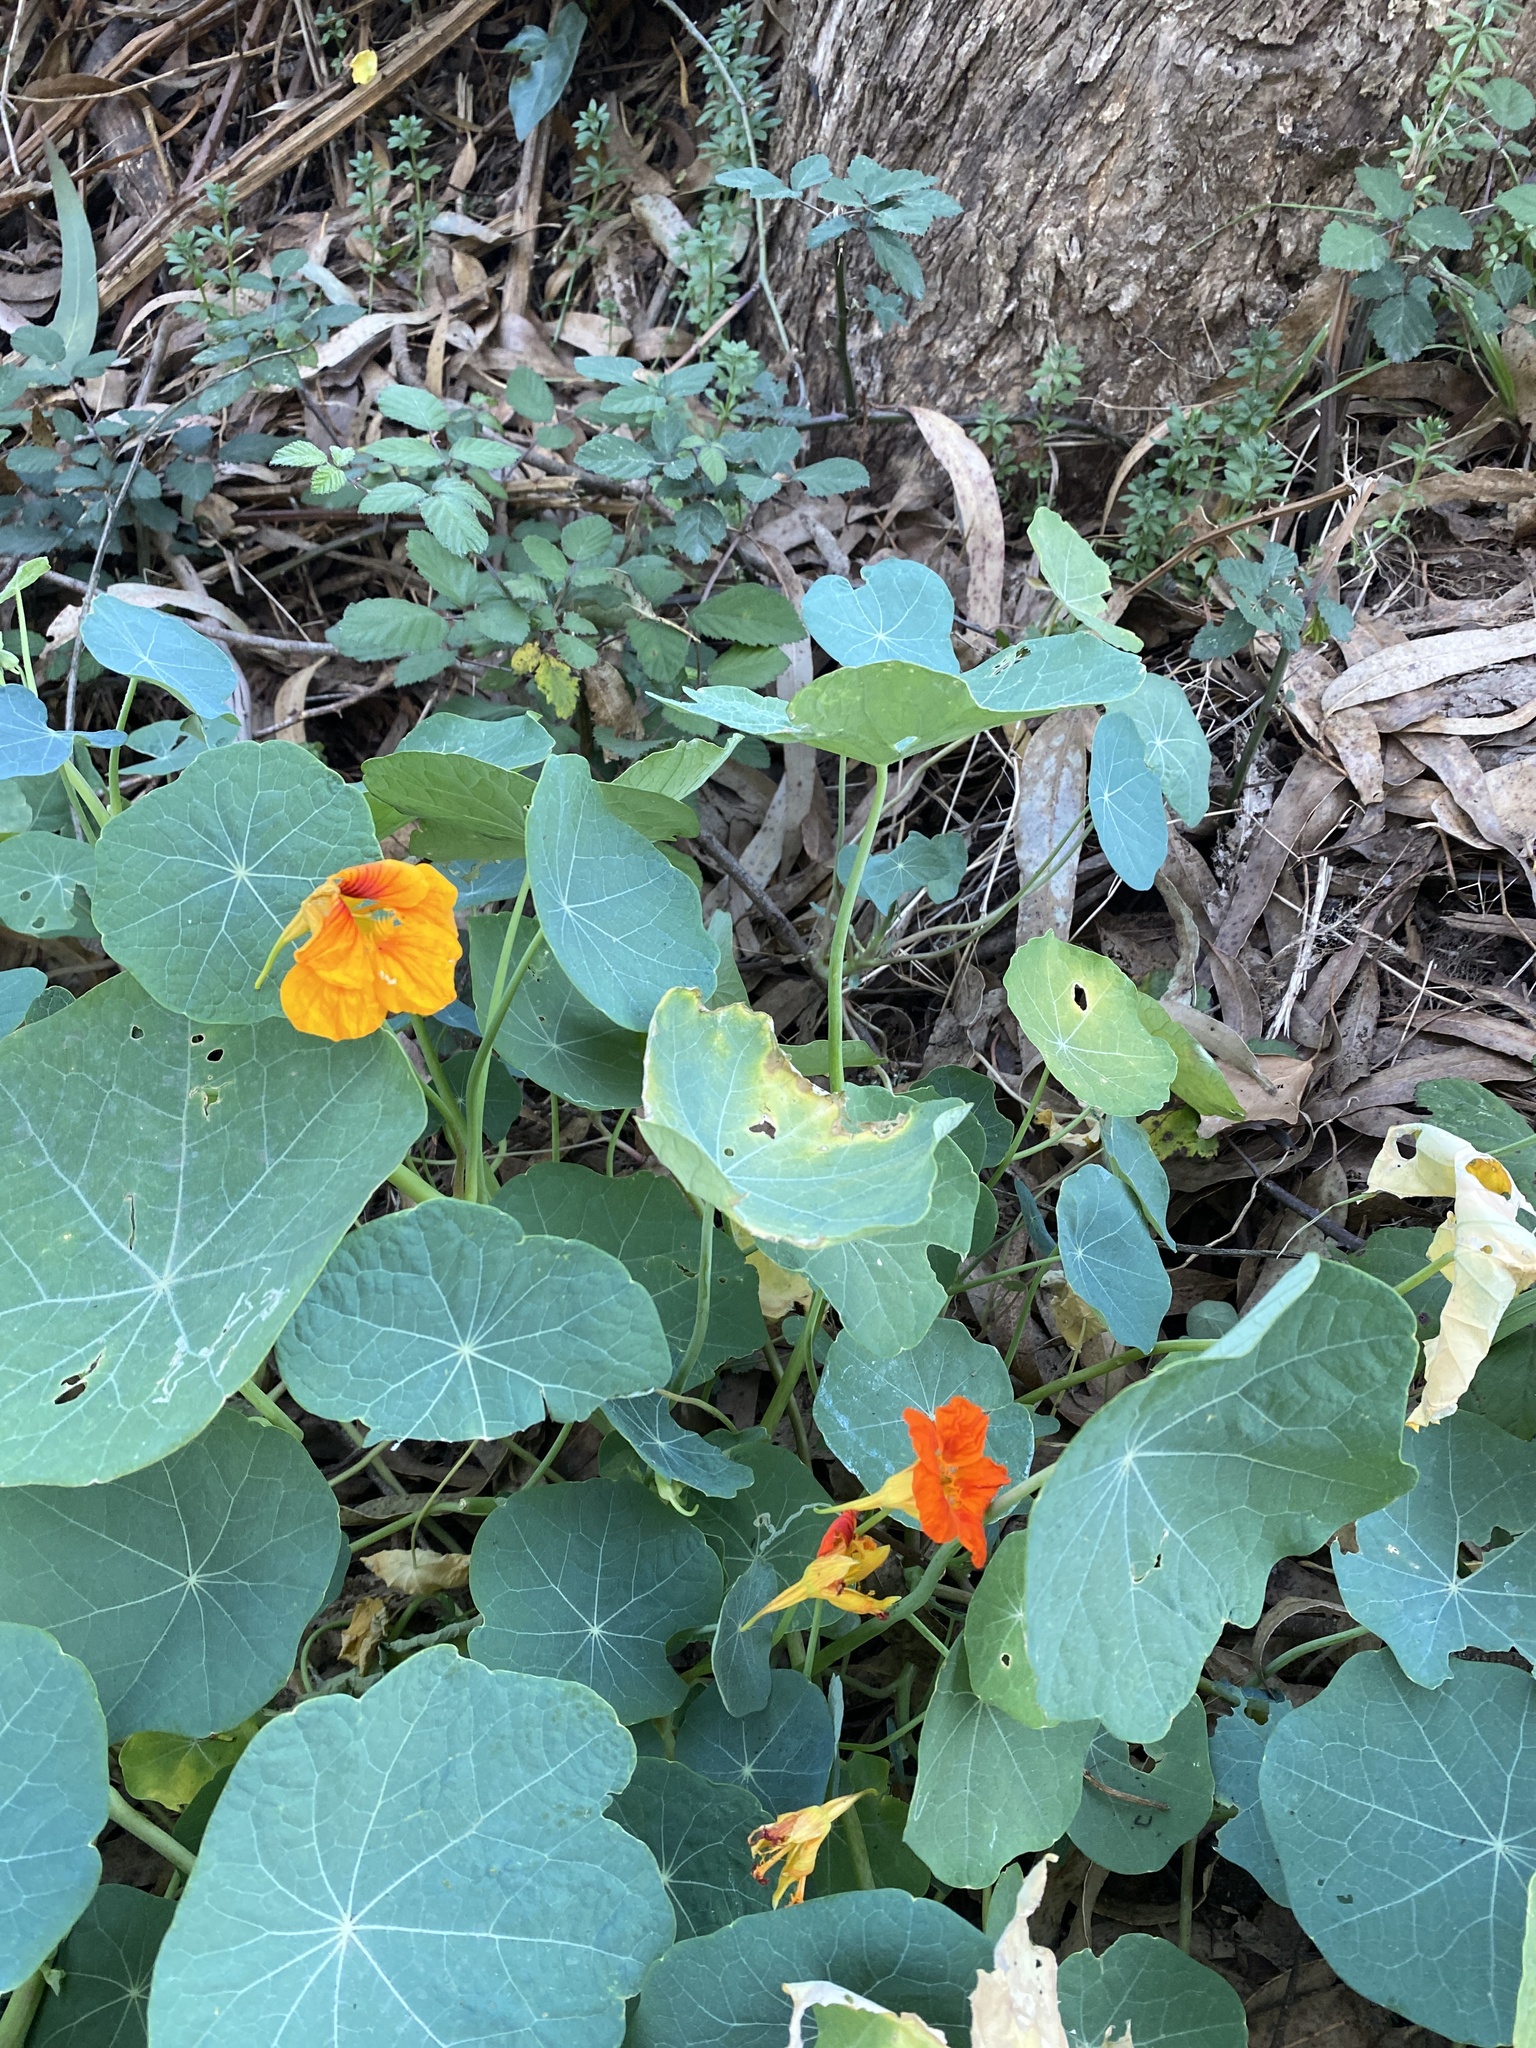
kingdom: Plantae
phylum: Tracheophyta
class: Magnoliopsida
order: Brassicales
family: Tropaeolaceae
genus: Tropaeolum
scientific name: Tropaeolum majus
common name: Nasturtium
